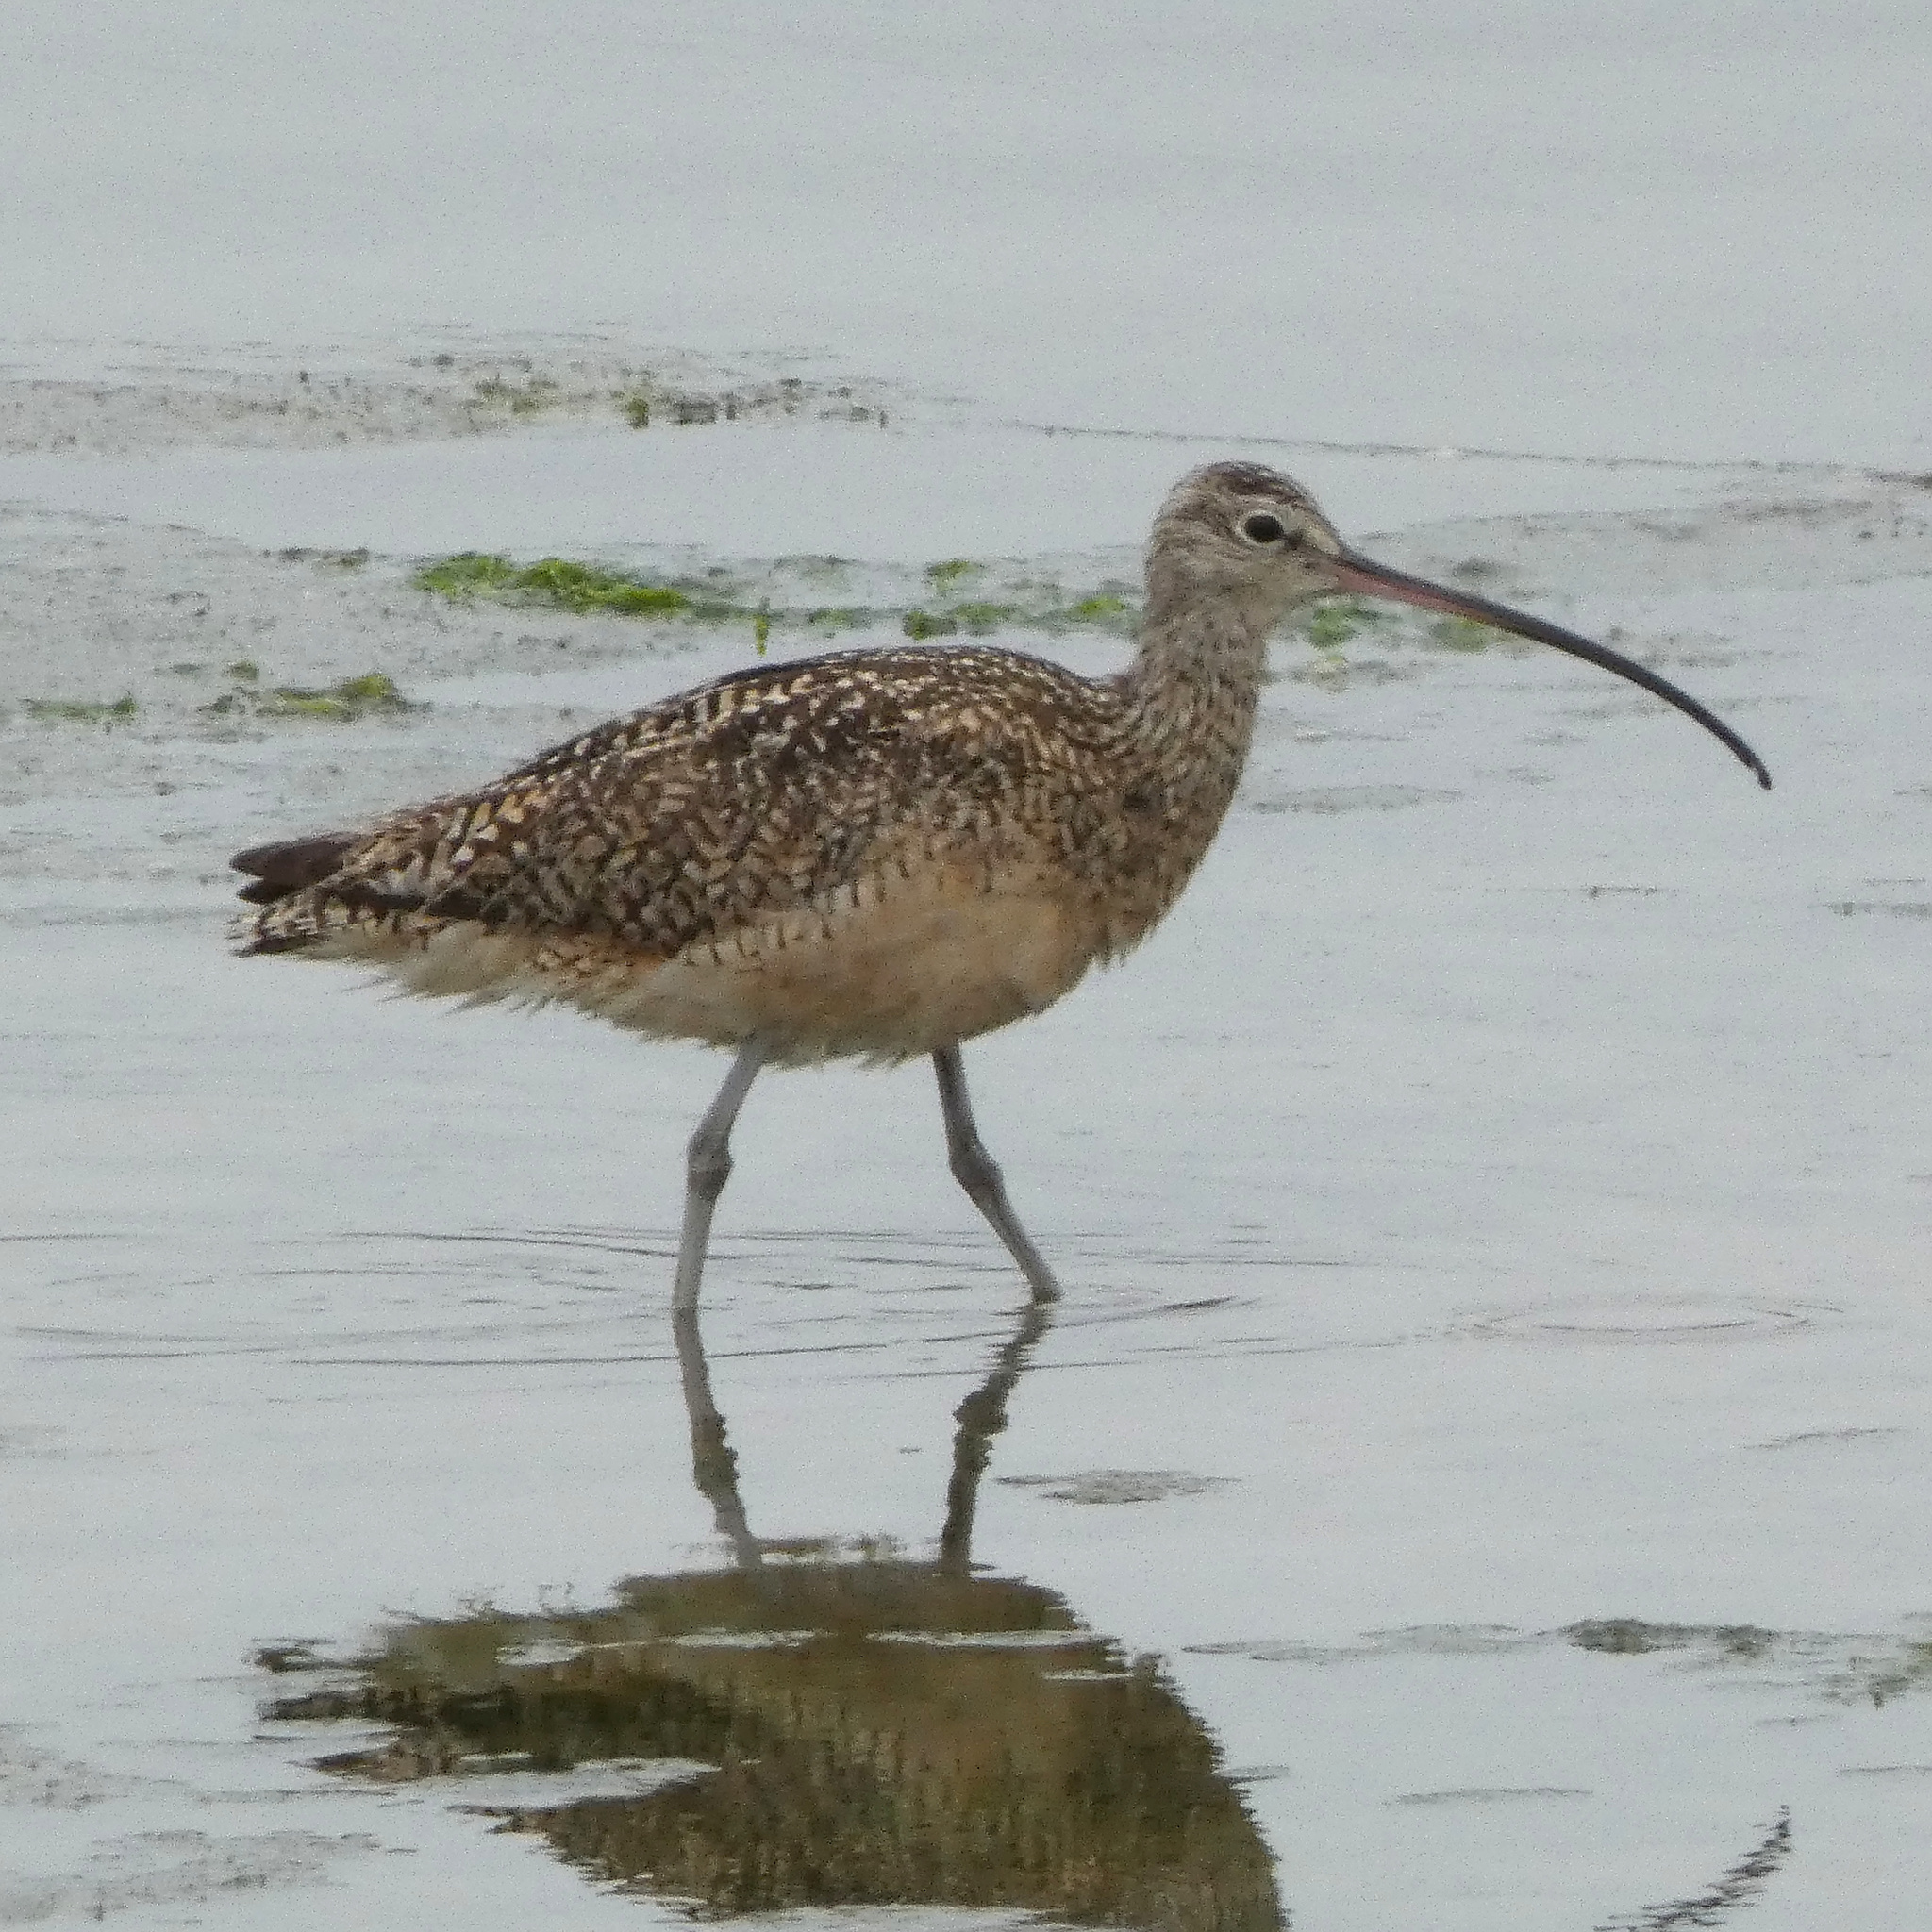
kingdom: Animalia
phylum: Chordata
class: Aves
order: Charadriiformes
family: Scolopacidae
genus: Numenius
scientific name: Numenius americanus
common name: Long-billed curlew
